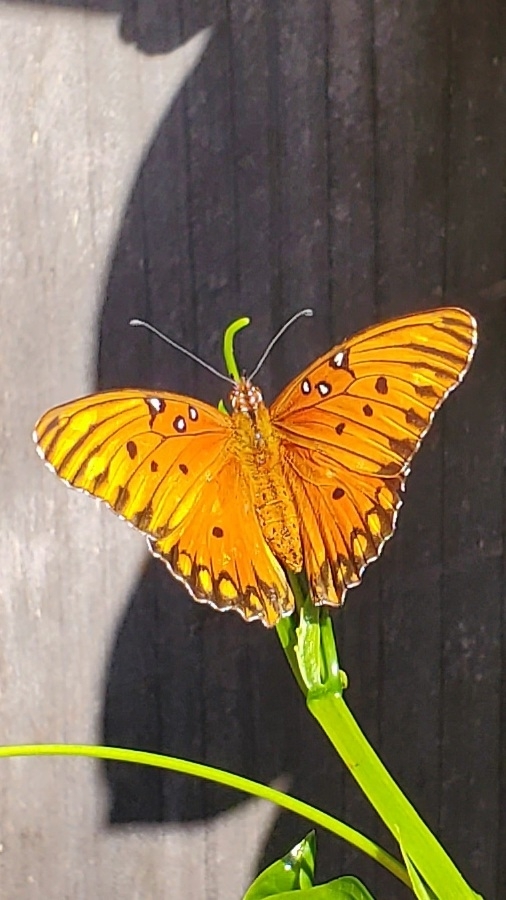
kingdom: Animalia
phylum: Arthropoda
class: Insecta
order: Lepidoptera
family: Nymphalidae
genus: Dione
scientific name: Dione vanillae
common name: Gulf fritillary
